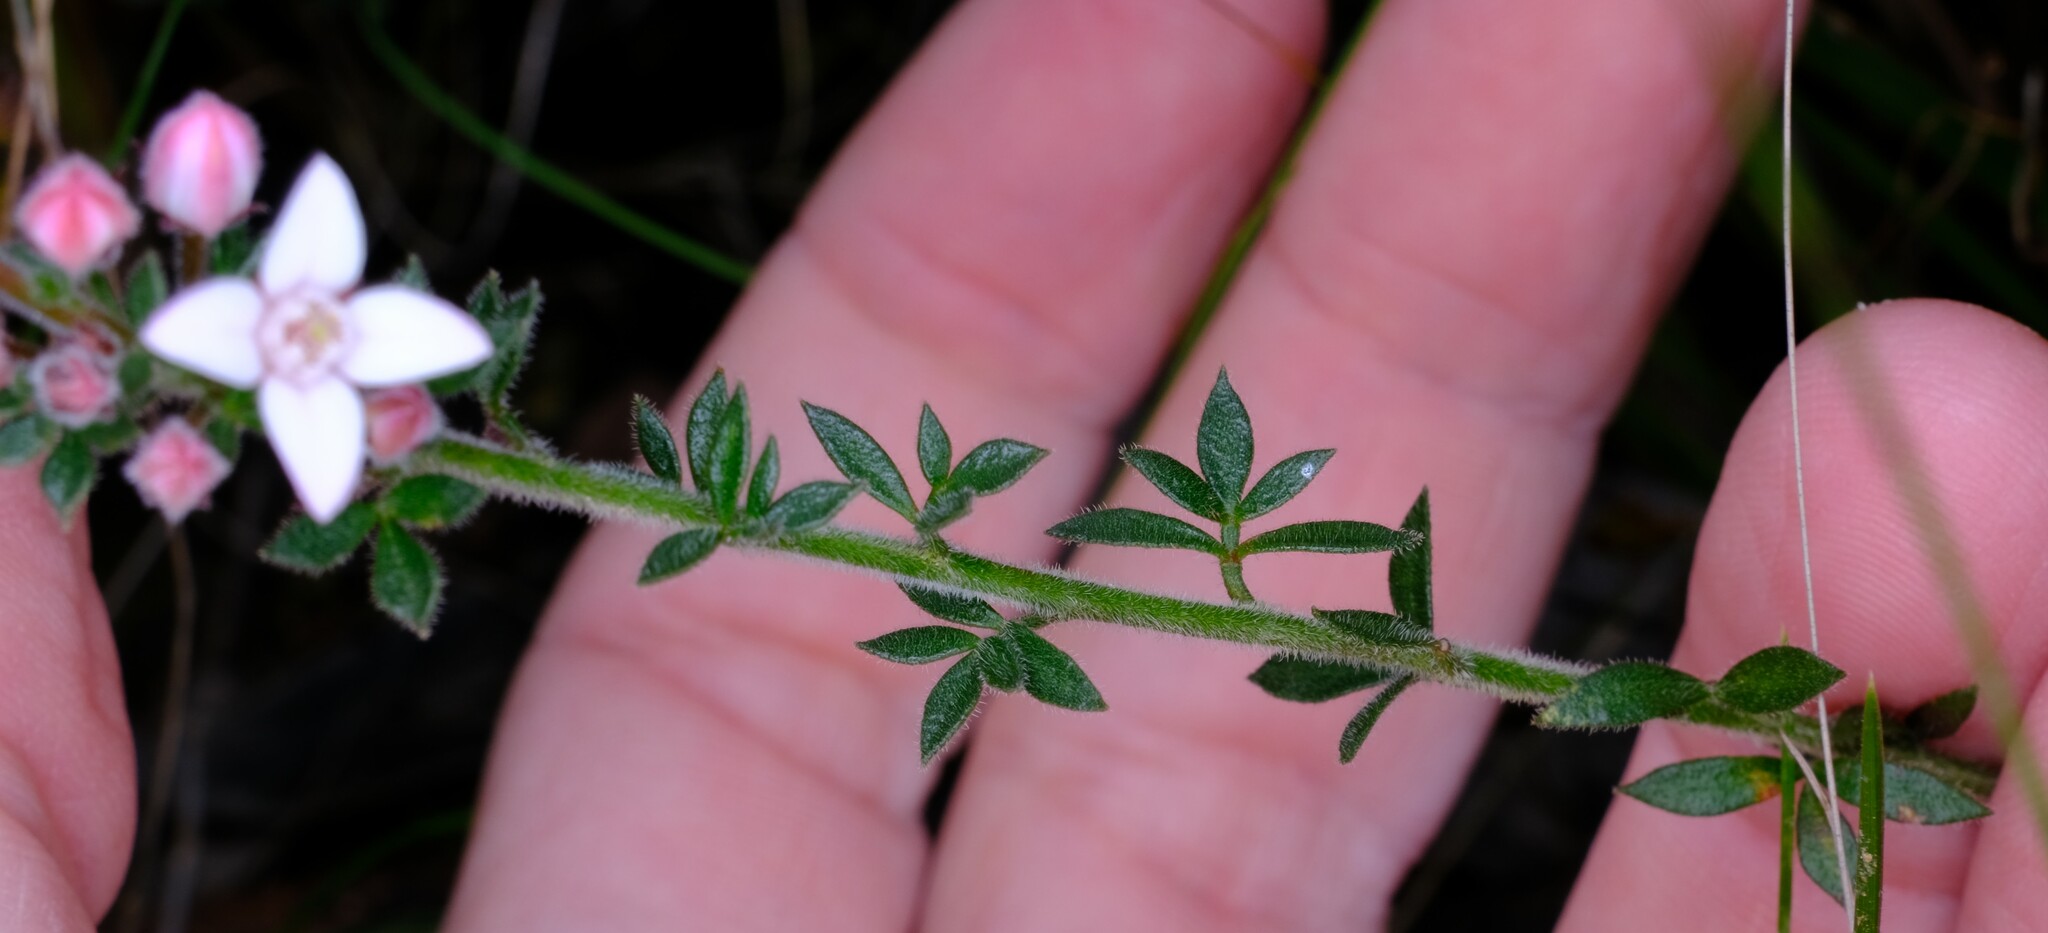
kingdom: Plantae
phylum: Tracheophyta
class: Magnoliopsida
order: Sapindales
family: Rutaceae
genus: Cyanothamnus
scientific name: Cyanothamnus nanus
